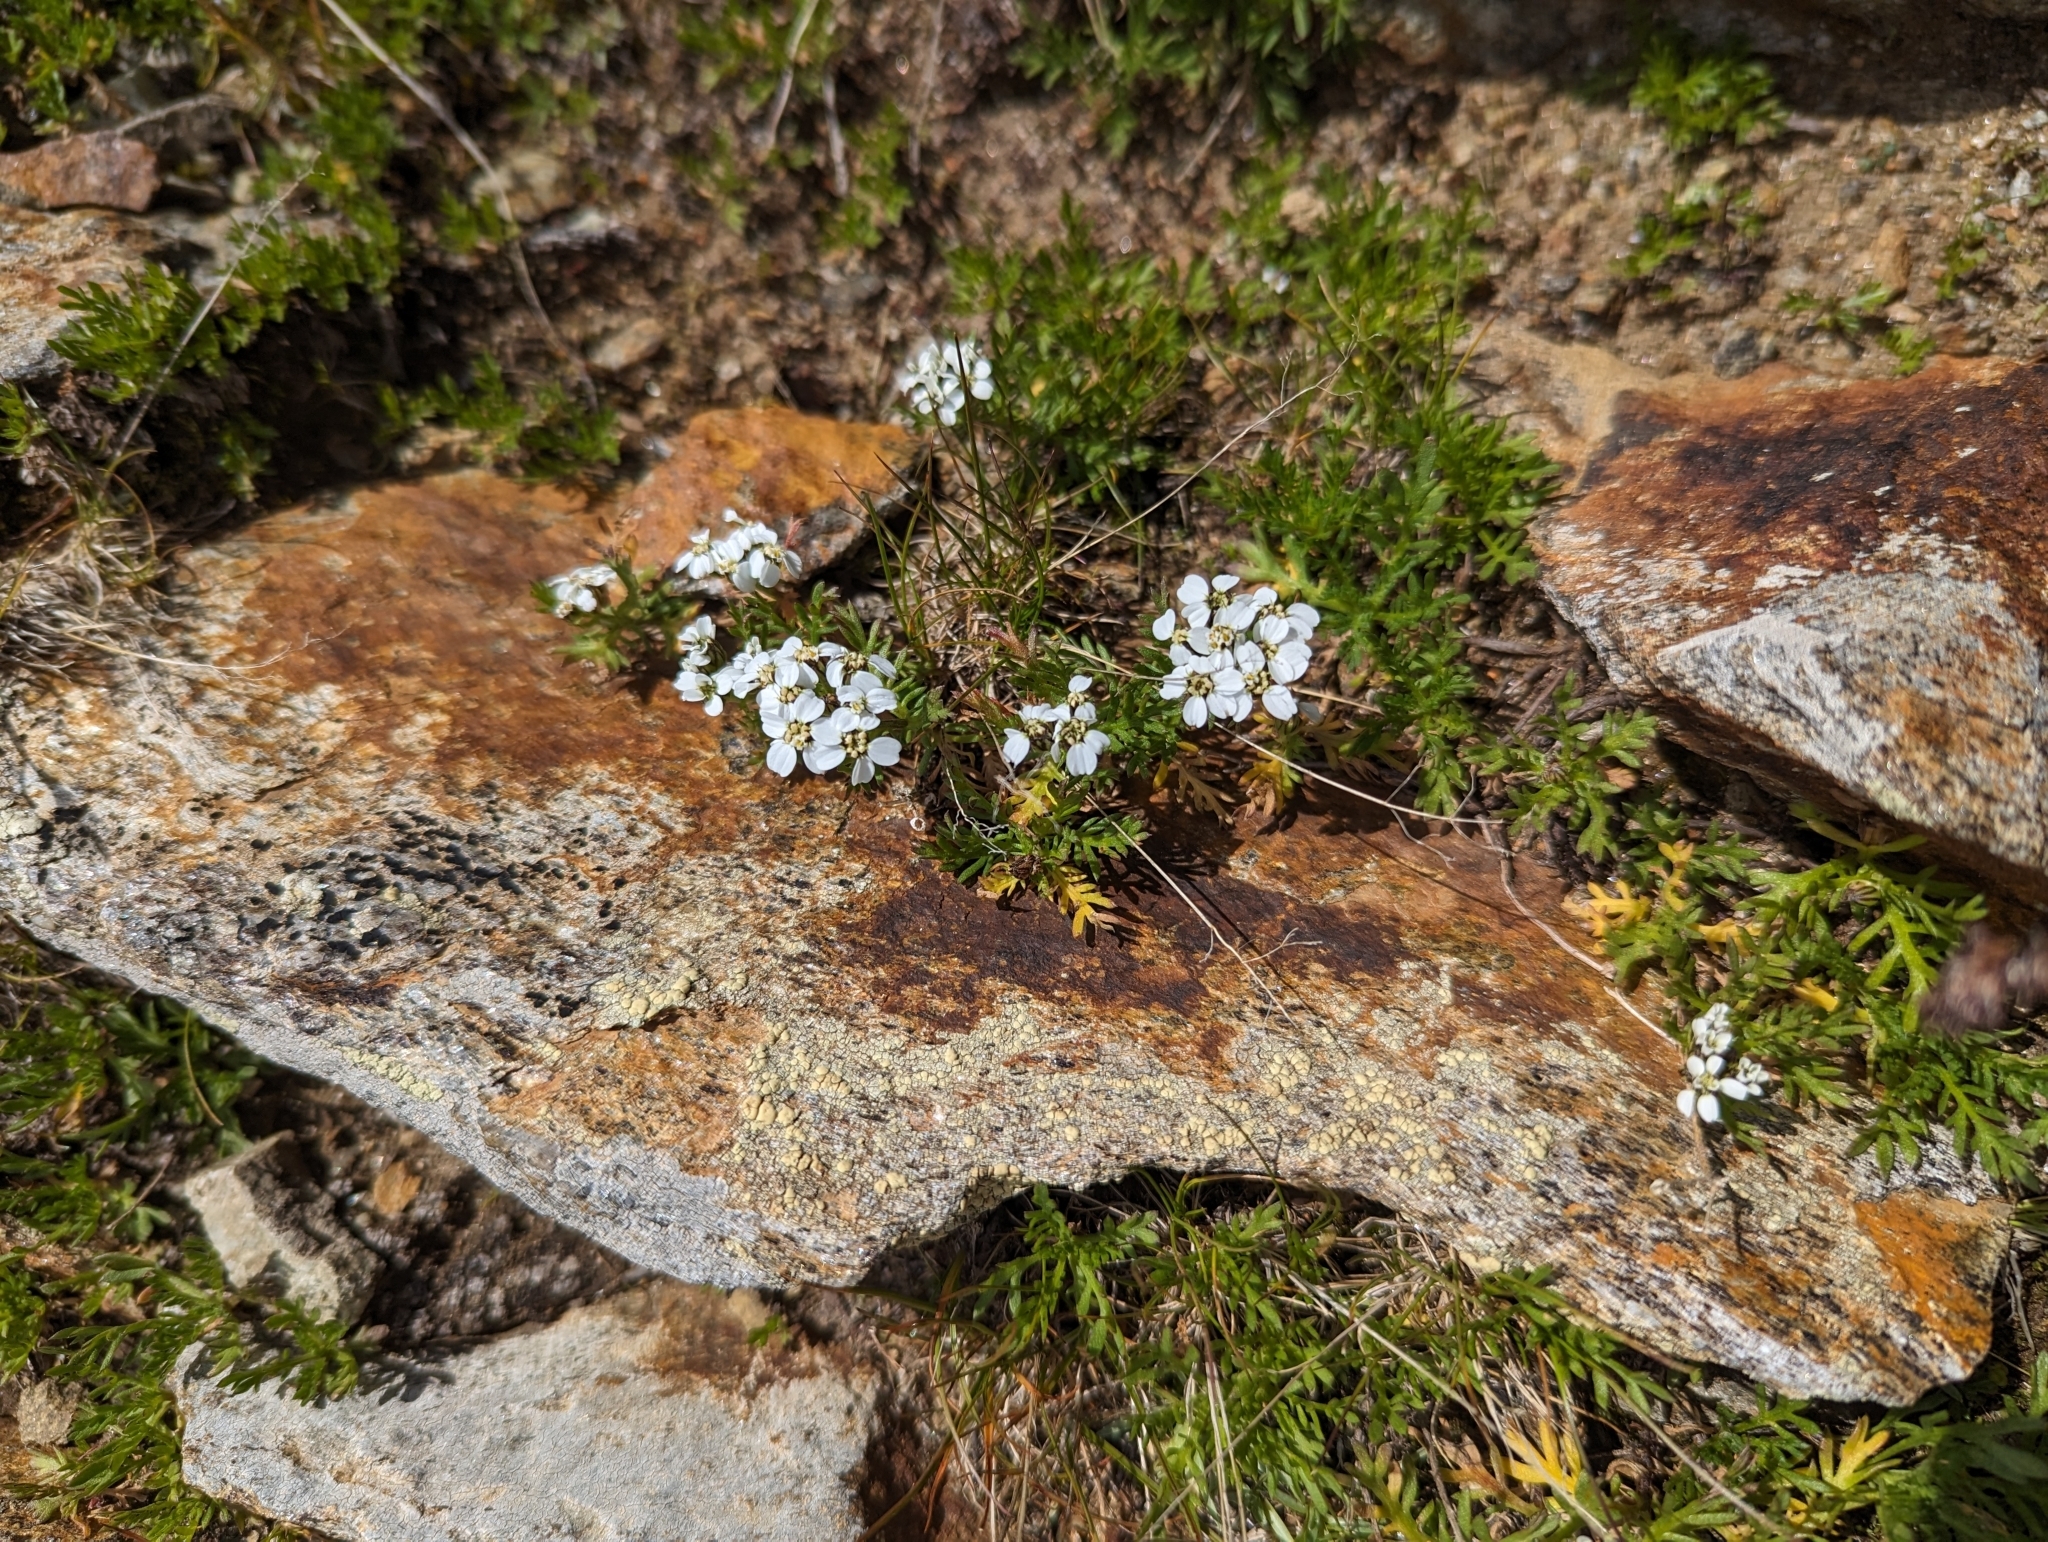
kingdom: Plantae
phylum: Tracheophyta
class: Magnoliopsida
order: Asterales
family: Asteraceae
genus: Achillea
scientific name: Achillea erba-rotta
